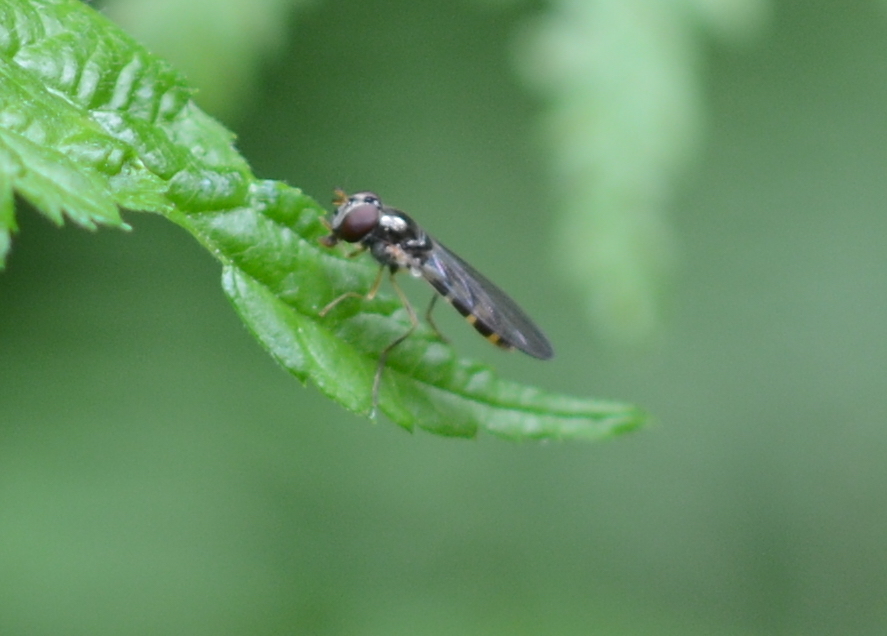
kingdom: Animalia
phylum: Arthropoda
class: Insecta
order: Diptera
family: Syrphidae
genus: Melanostoma
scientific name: Melanostoma mellina
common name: Hover fly
